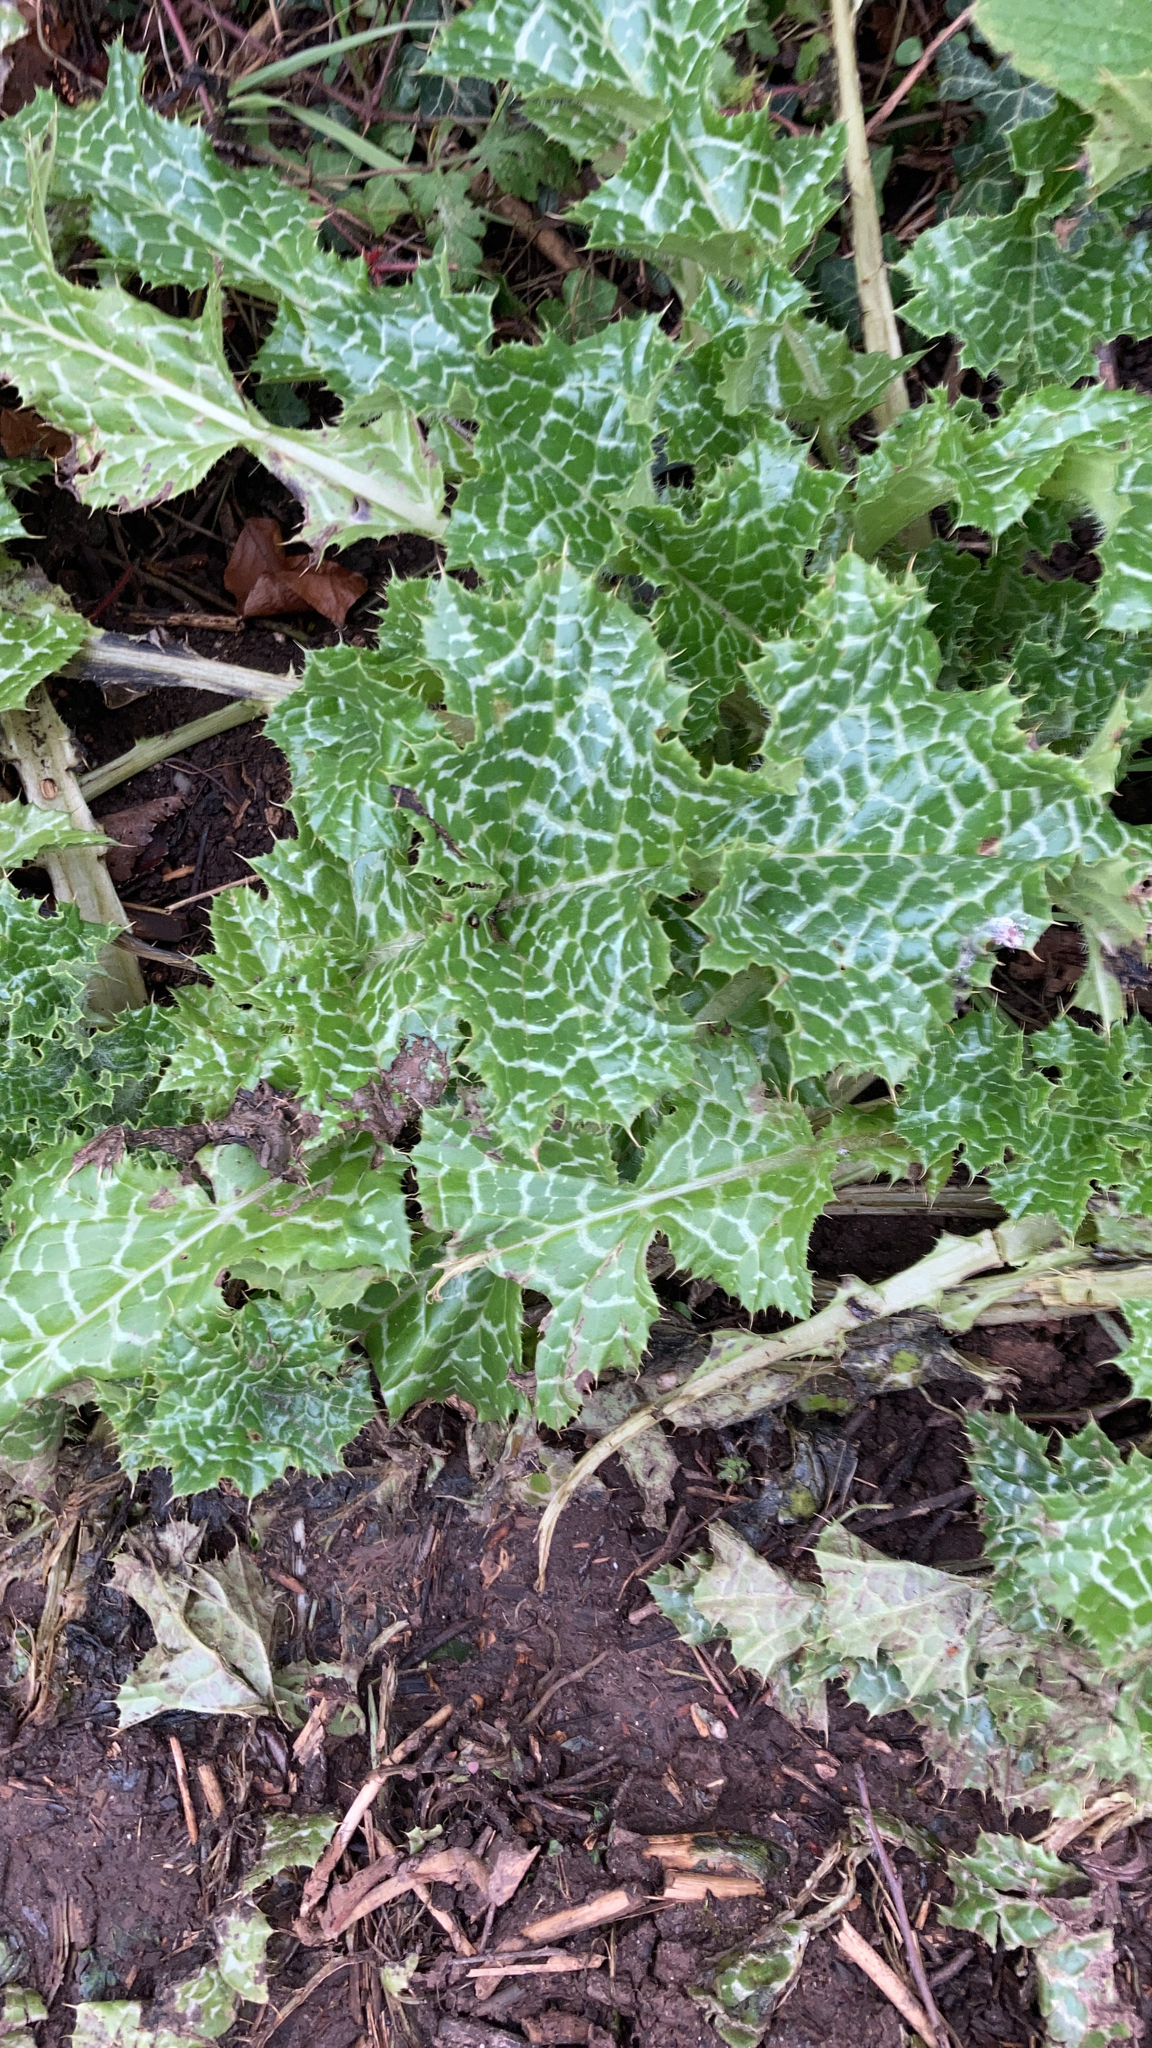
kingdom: Plantae
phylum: Tracheophyta
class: Magnoliopsida
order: Asterales
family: Asteraceae
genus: Silybum
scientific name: Silybum marianum
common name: Milk thistle
